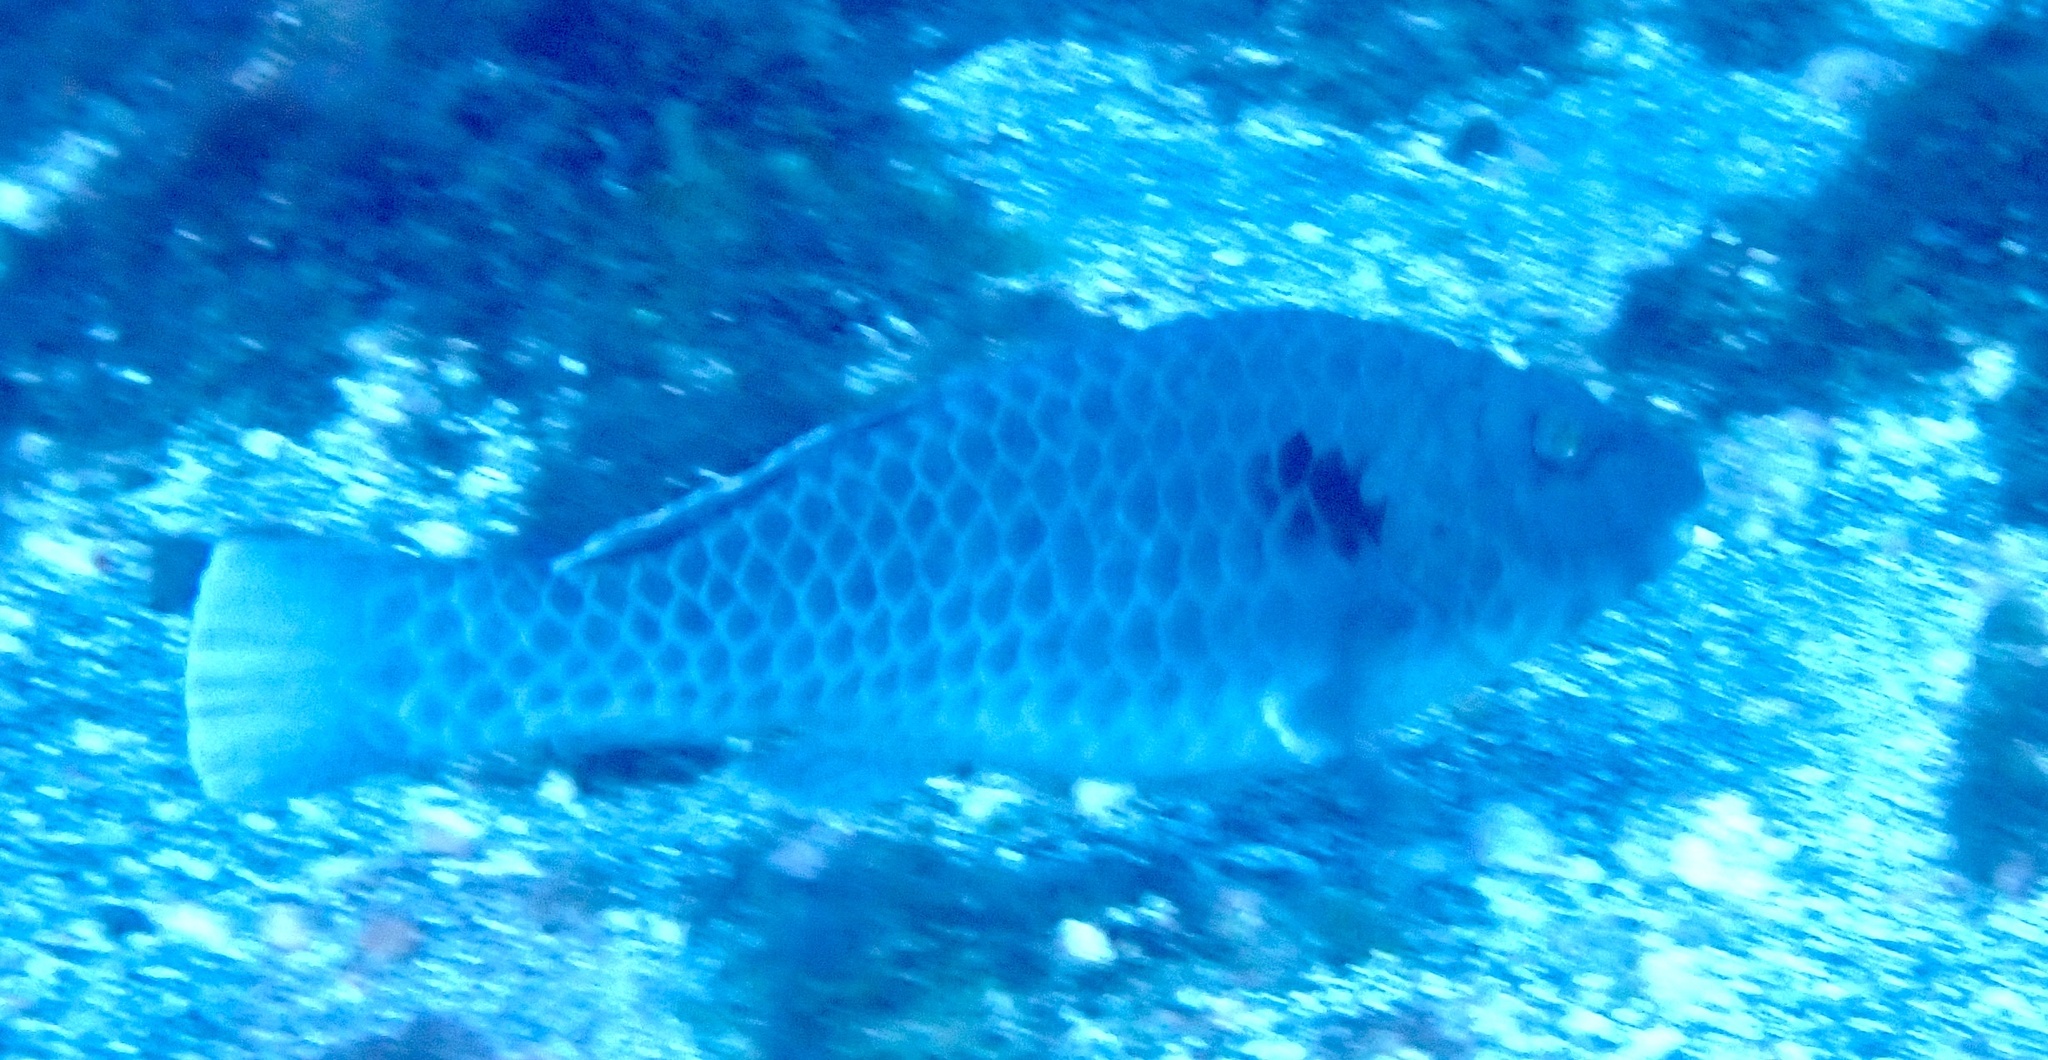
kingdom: Animalia
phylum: Chordata
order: Perciformes
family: Scaridae
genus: Sparisoma
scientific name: Sparisoma cretense
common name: Parrotfish
